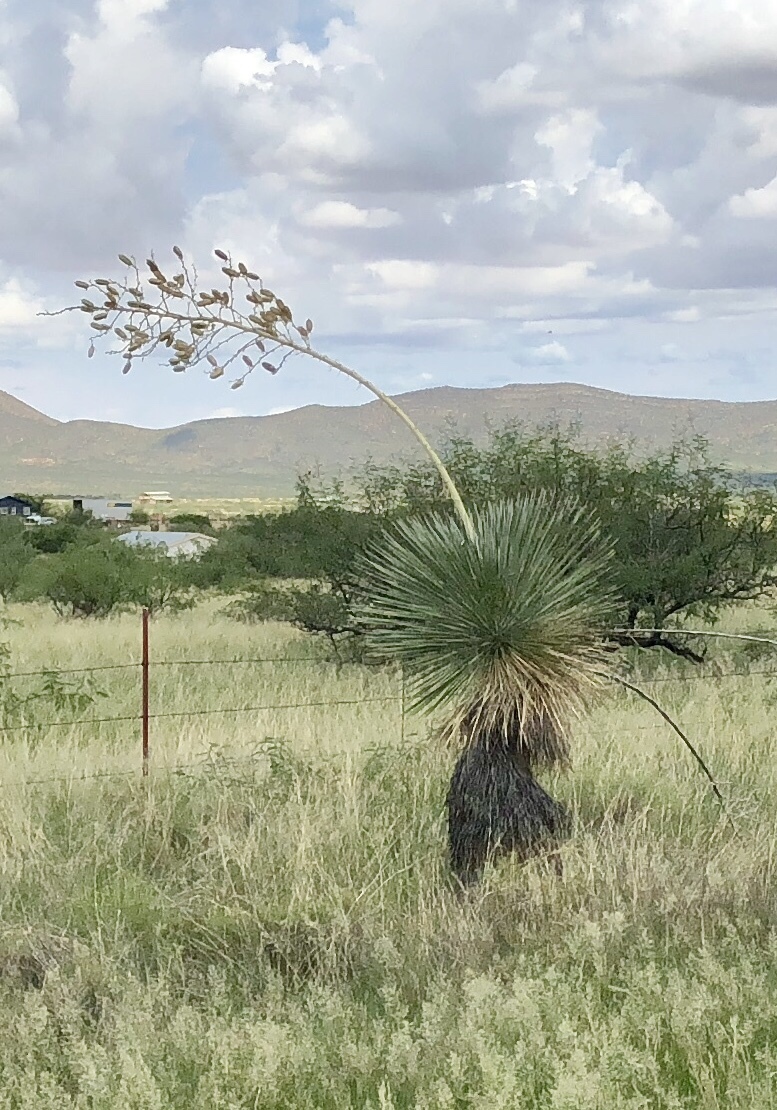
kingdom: Plantae
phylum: Tracheophyta
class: Liliopsida
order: Asparagales
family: Asparagaceae
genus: Yucca
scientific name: Yucca elata
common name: Palmella
